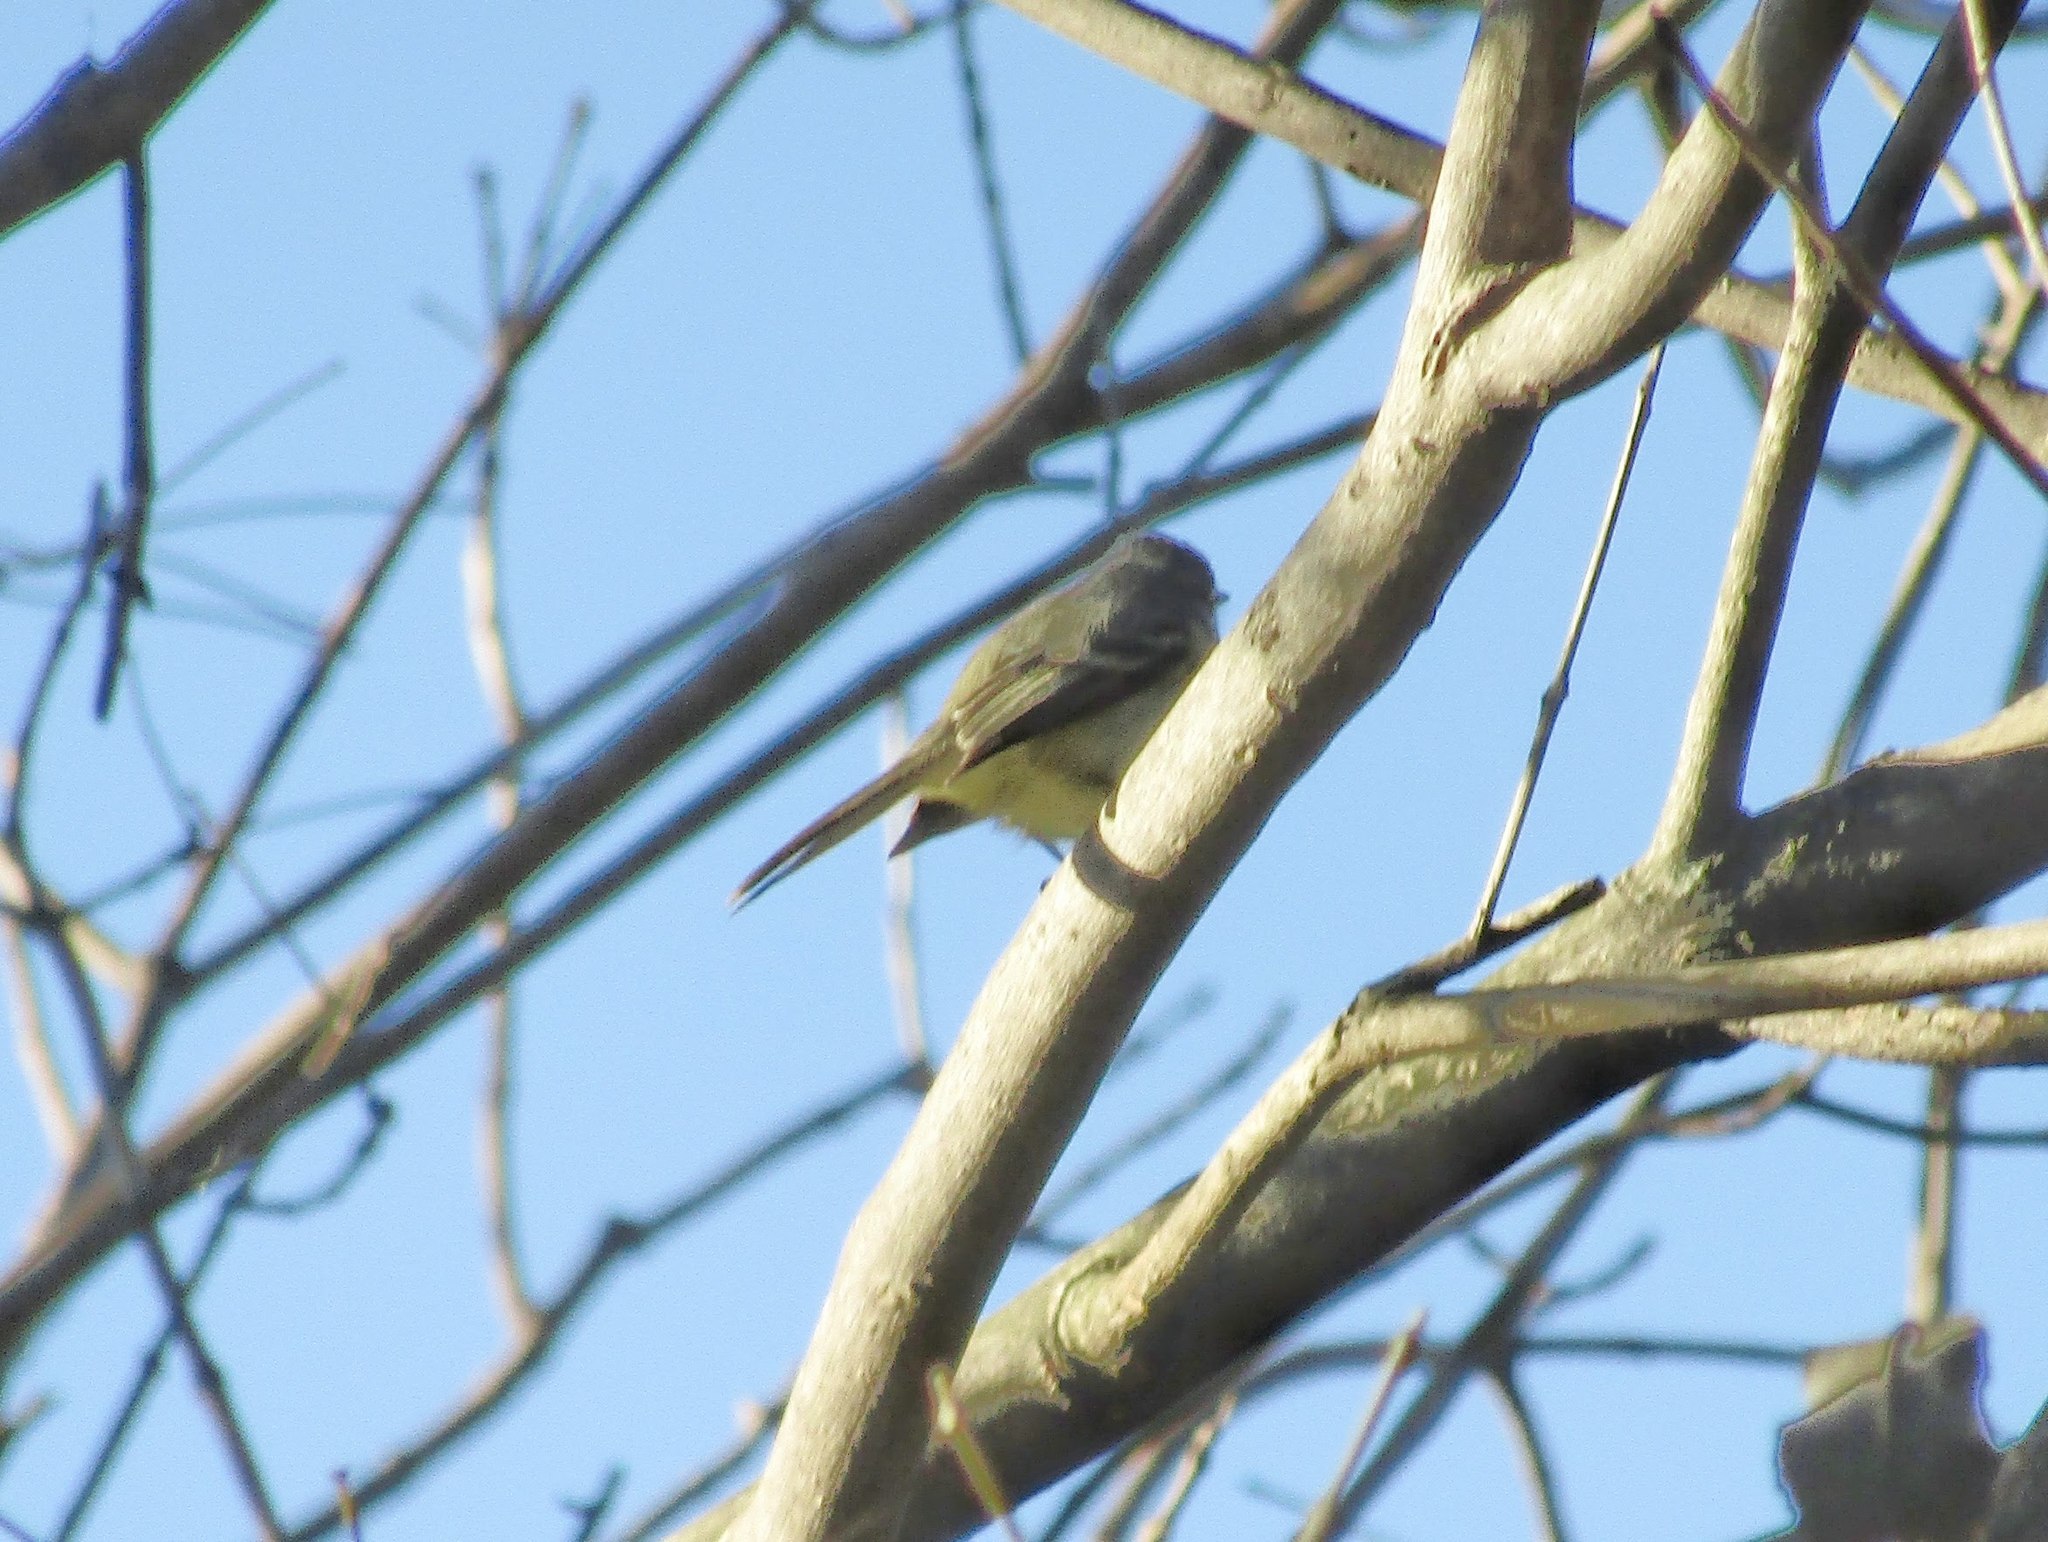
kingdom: Animalia
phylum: Chordata
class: Aves
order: Passeriformes
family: Tyrannidae
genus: Serpophaga
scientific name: Serpophaga subcristata
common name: White-crested tyrannulet
